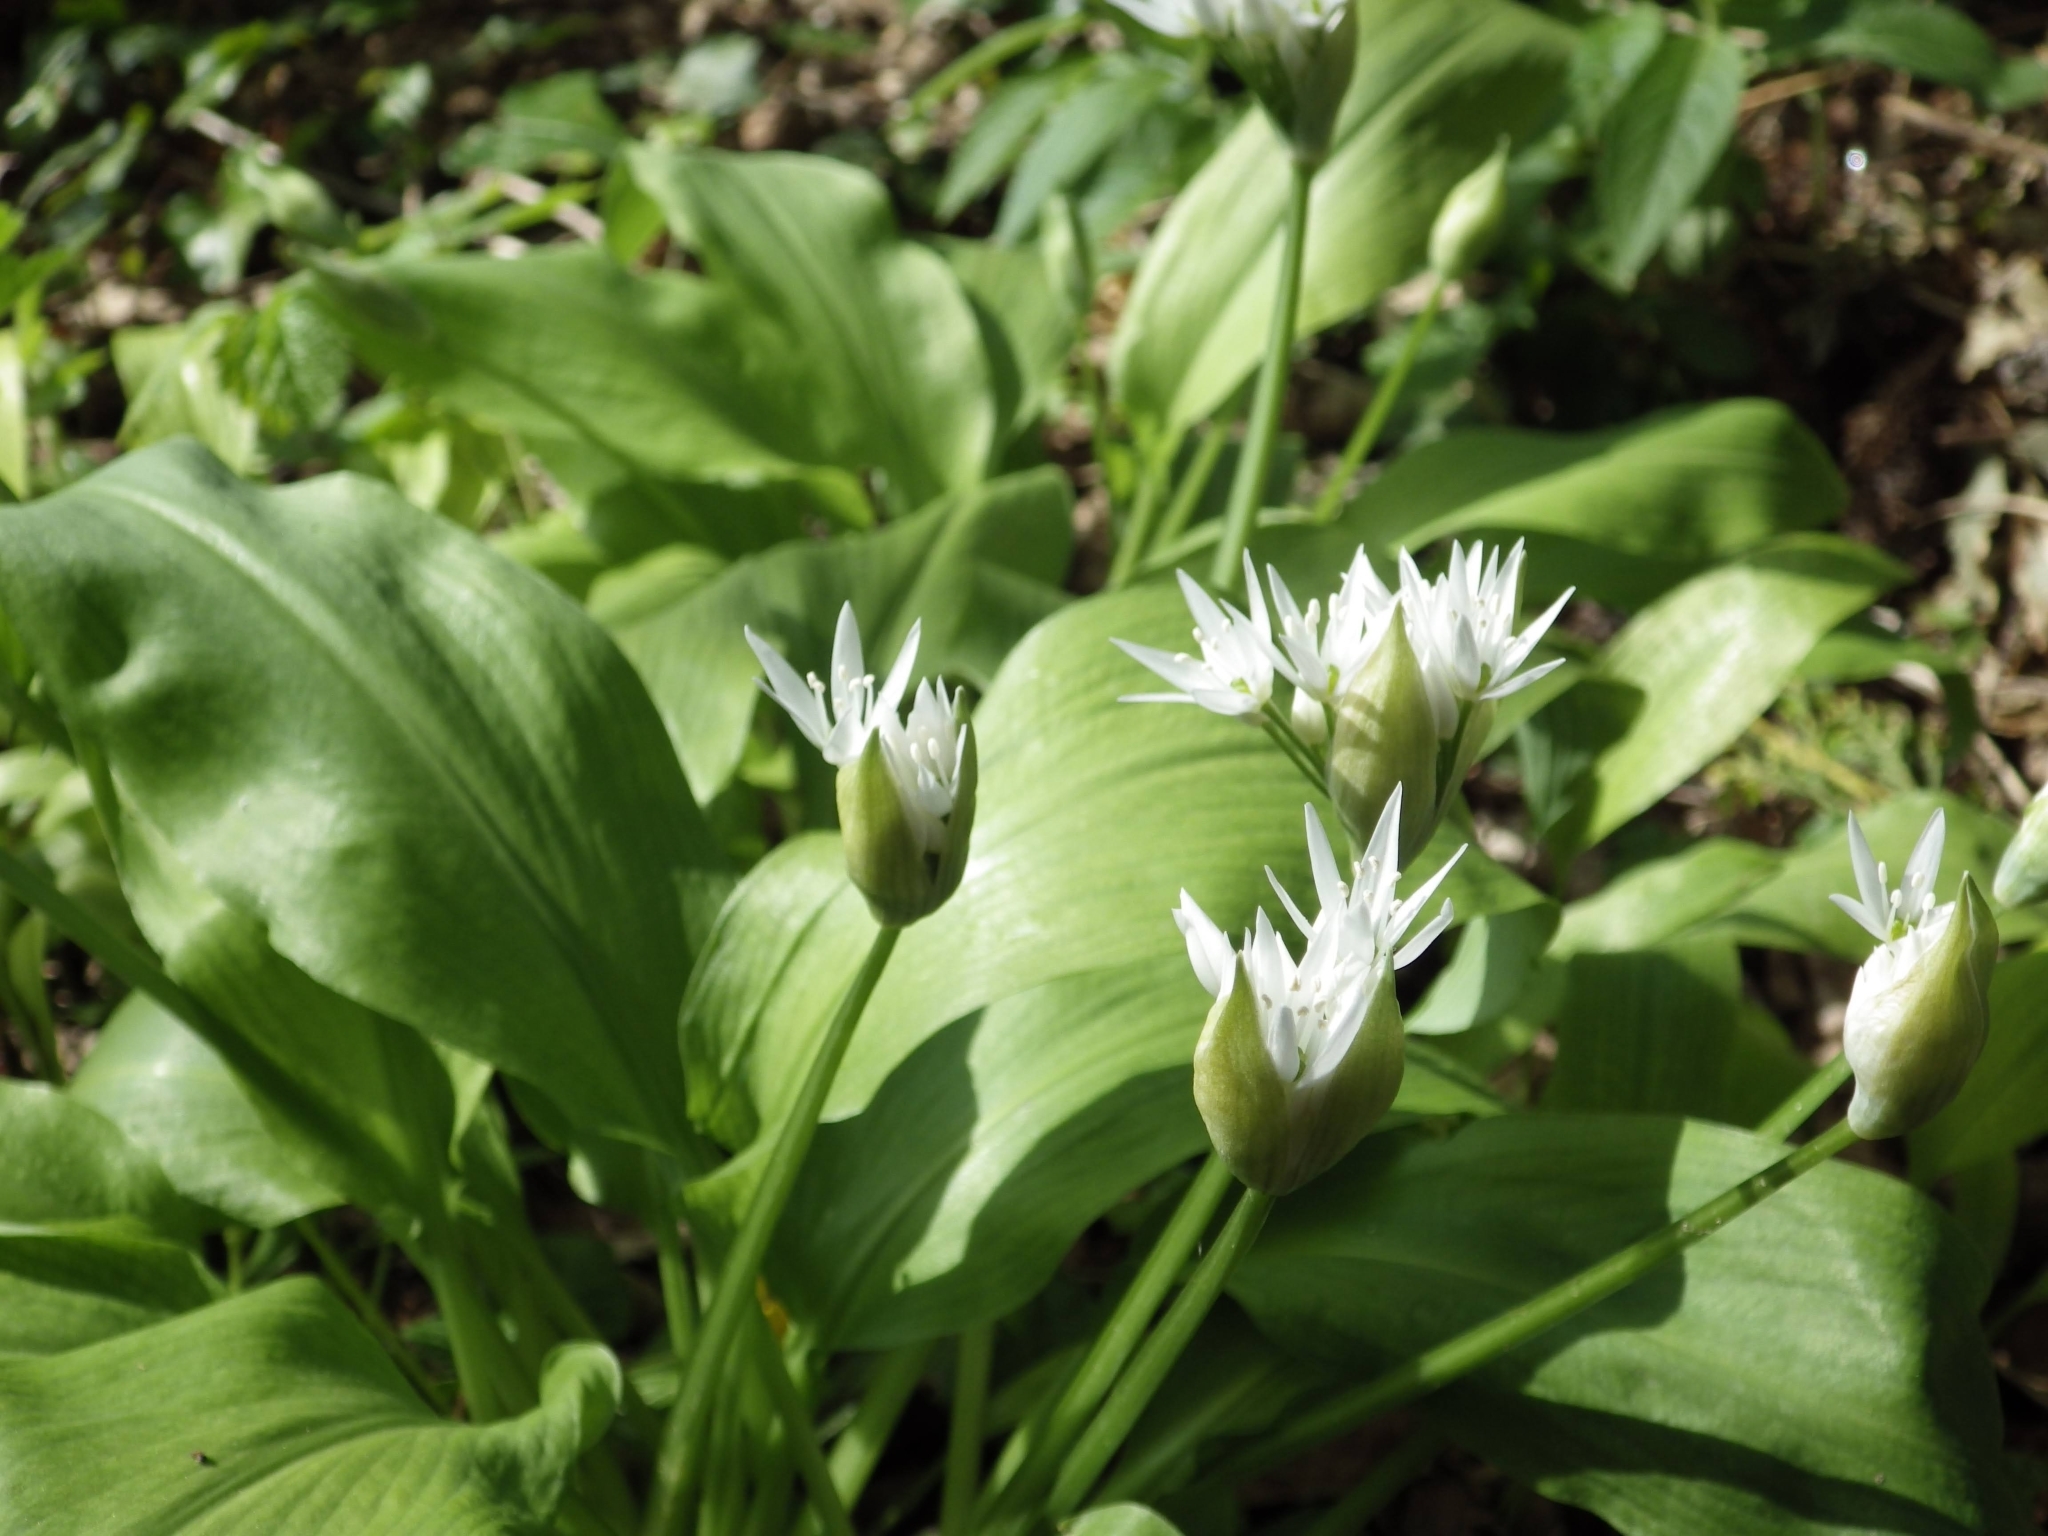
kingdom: Plantae
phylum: Tracheophyta
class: Liliopsida
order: Asparagales
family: Amaryllidaceae
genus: Allium
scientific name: Allium ursinum
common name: Ramsons
